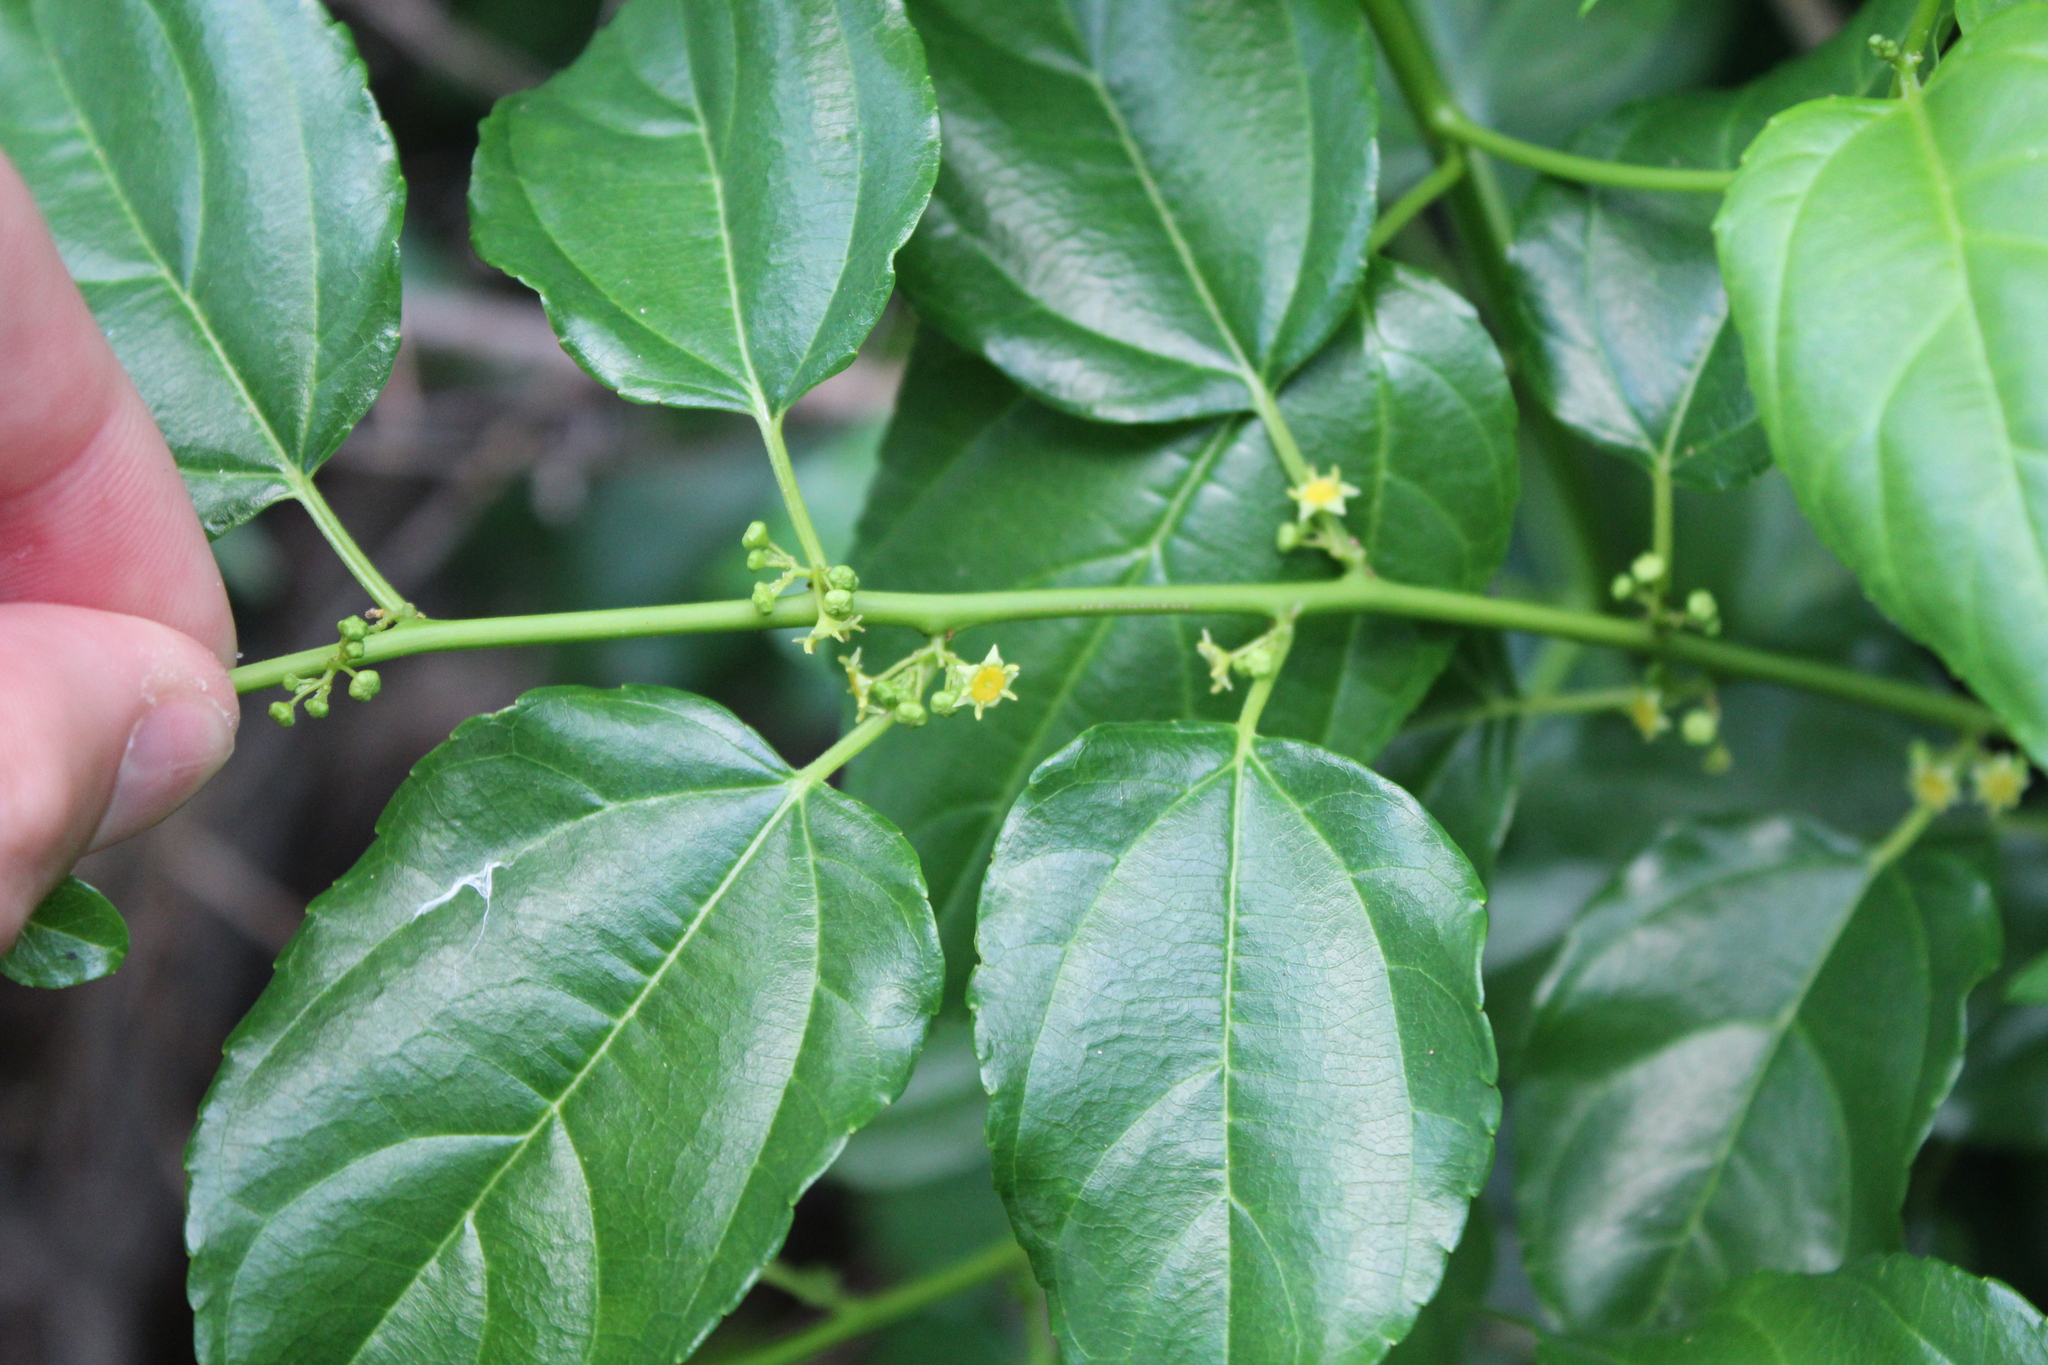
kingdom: Plantae
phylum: Tracheophyta
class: Magnoliopsida
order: Rosales
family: Rhamnaceae
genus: Colubrina
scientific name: Colubrina asiatica
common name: Asian nakedwood
